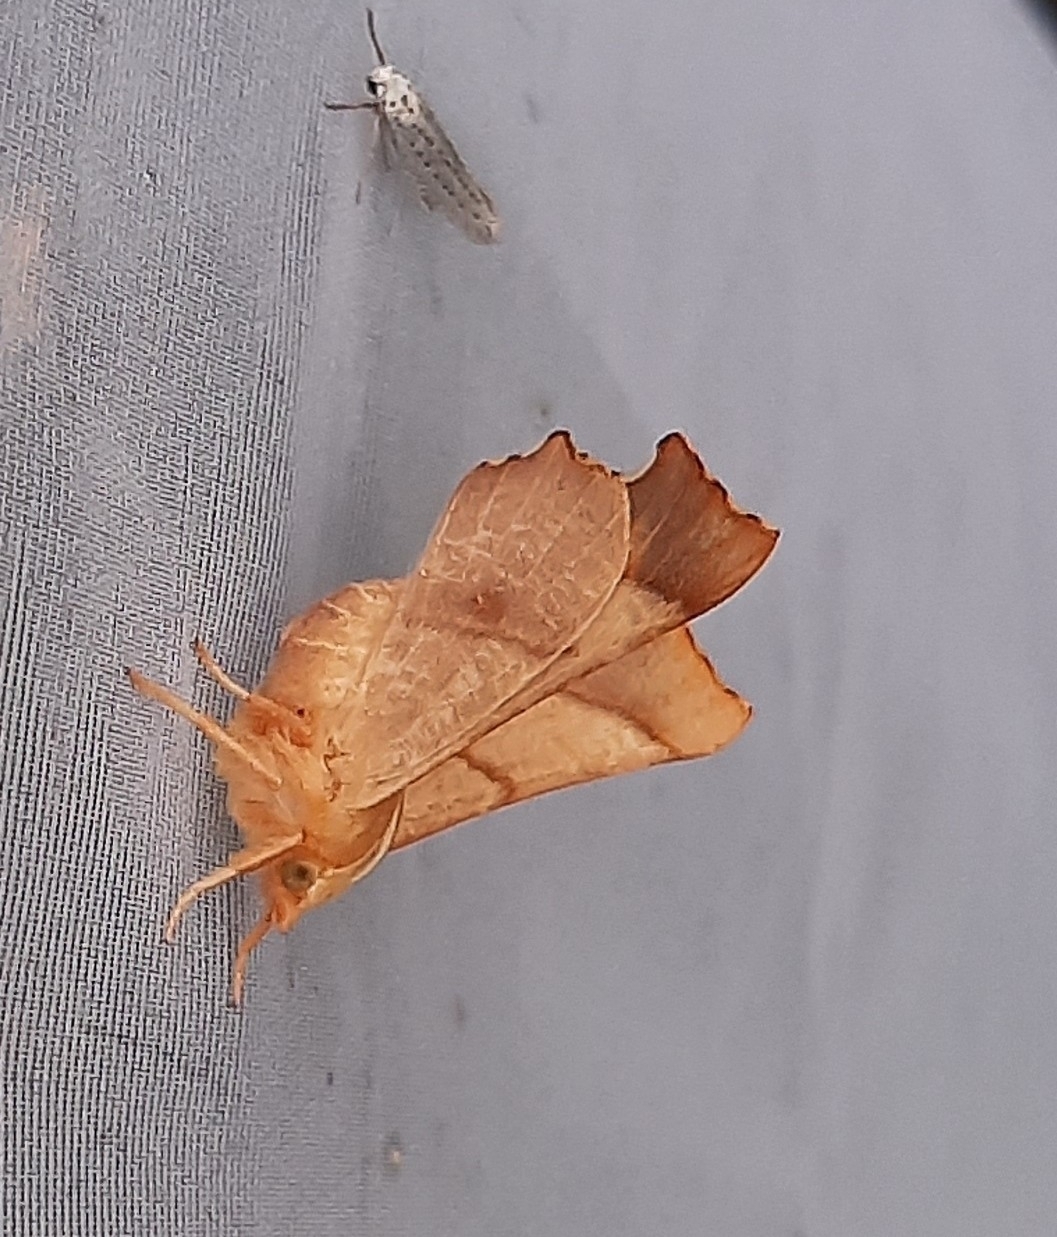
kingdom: Animalia
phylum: Arthropoda
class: Insecta
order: Lepidoptera
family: Geometridae
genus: Ennomos
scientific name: Ennomos fuscantaria
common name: Dusky thorn
